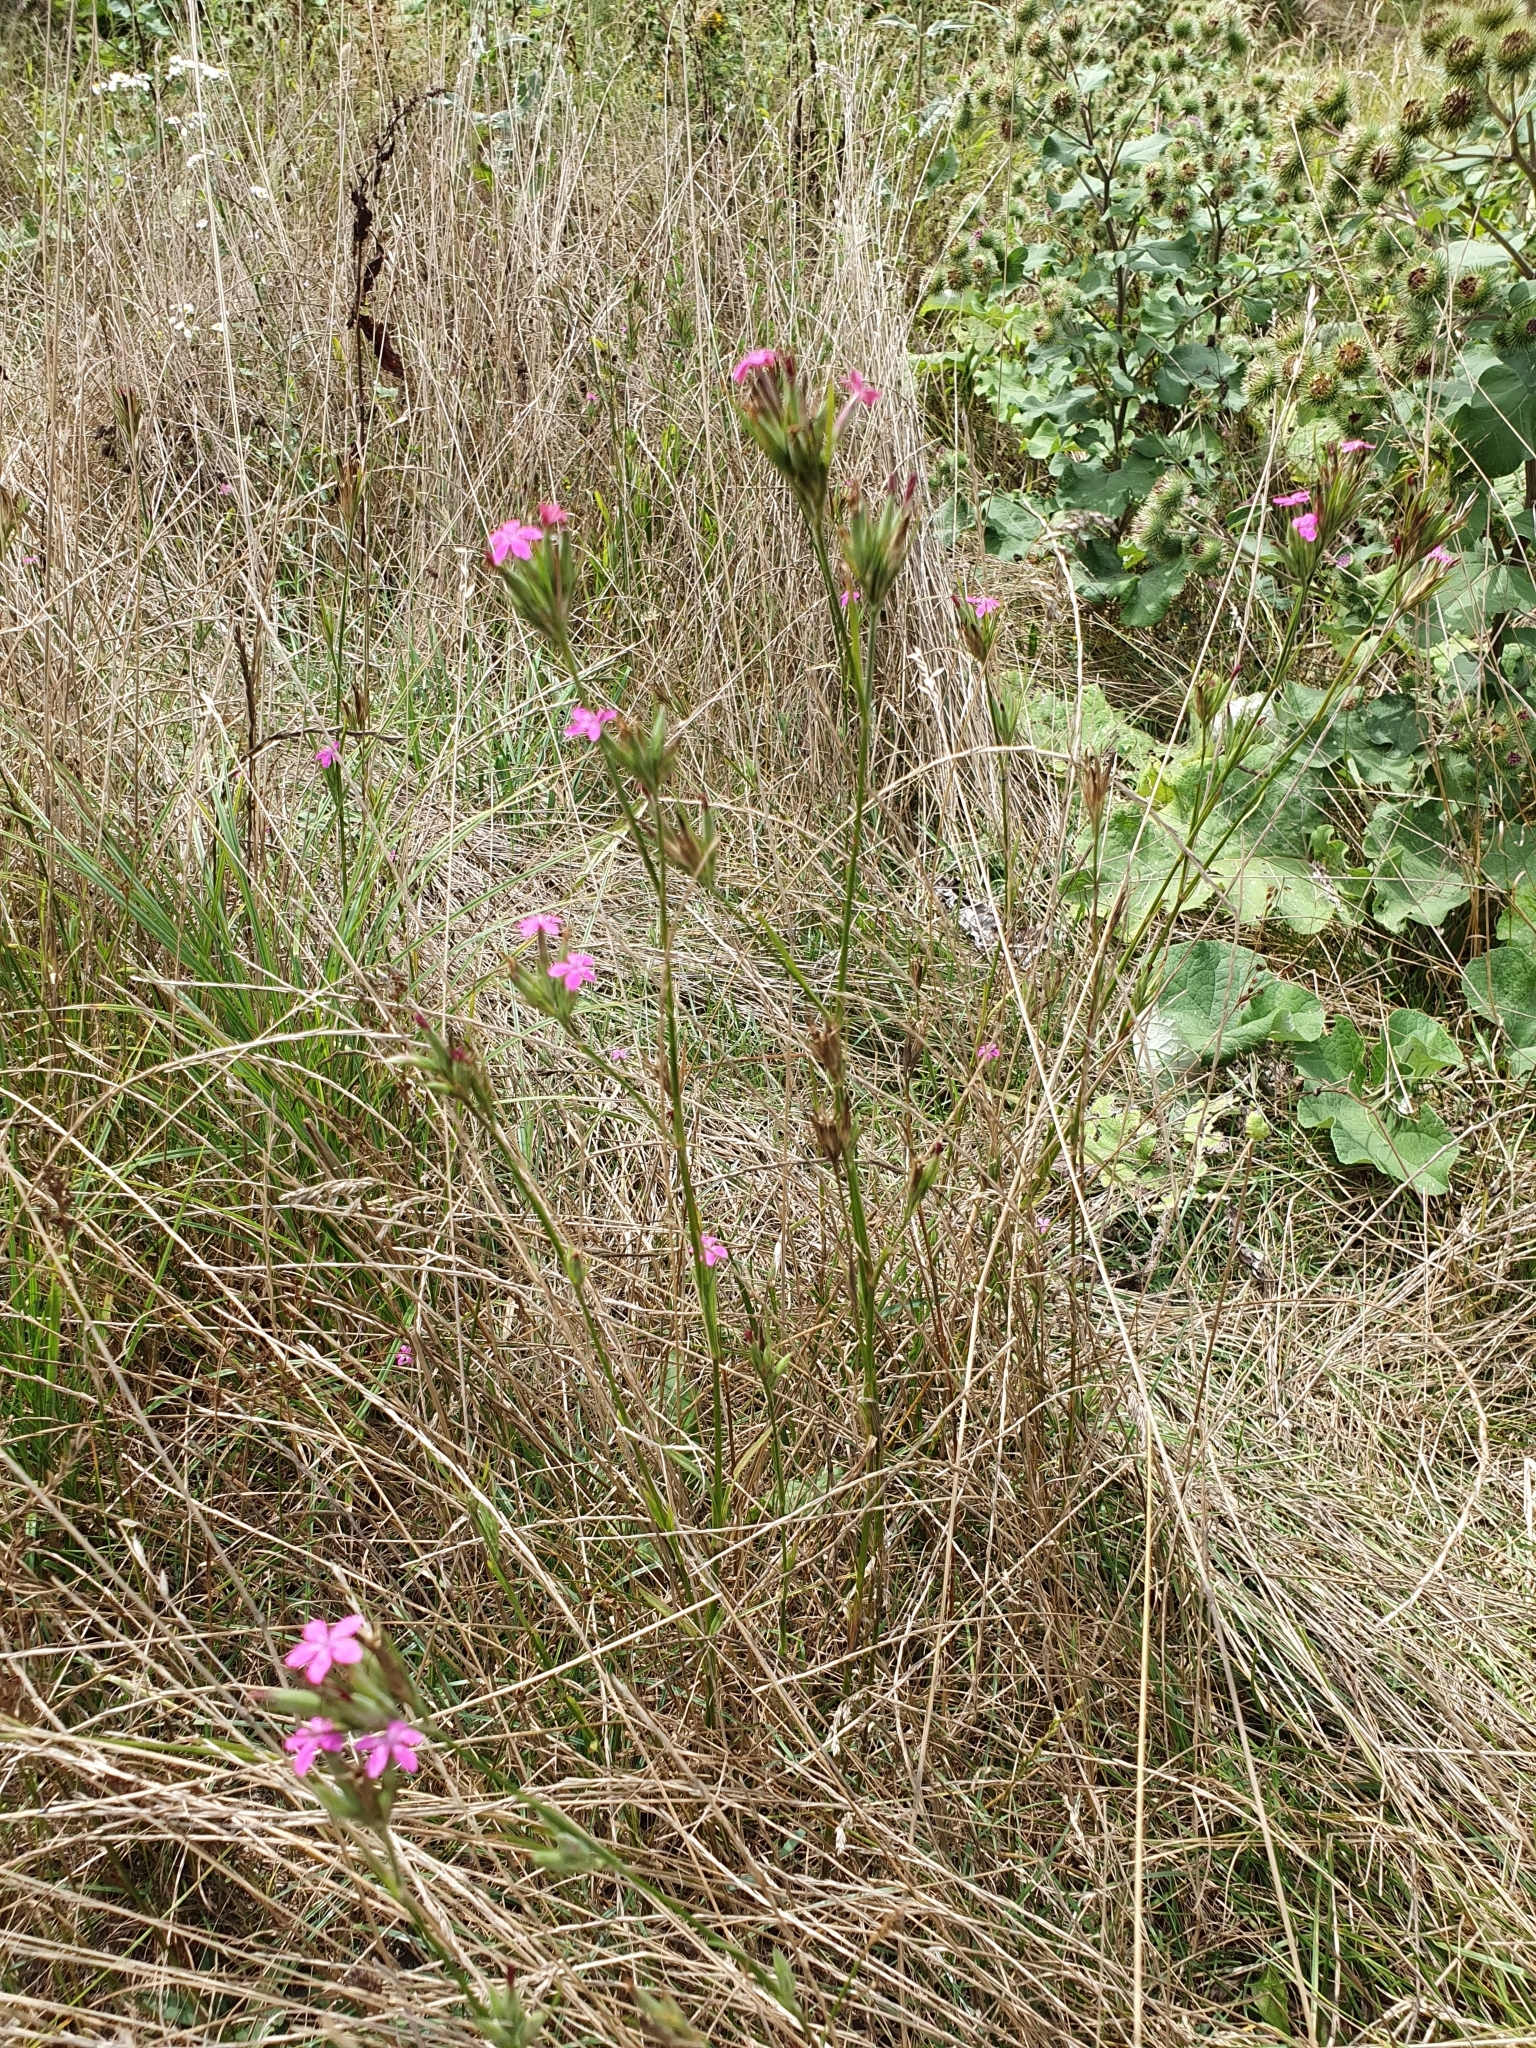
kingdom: Plantae
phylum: Tracheophyta
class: Magnoliopsida
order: Caryophyllales
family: Caryophyllaceae
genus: Dianthus
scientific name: Dianthus armeria
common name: Deptford pink
